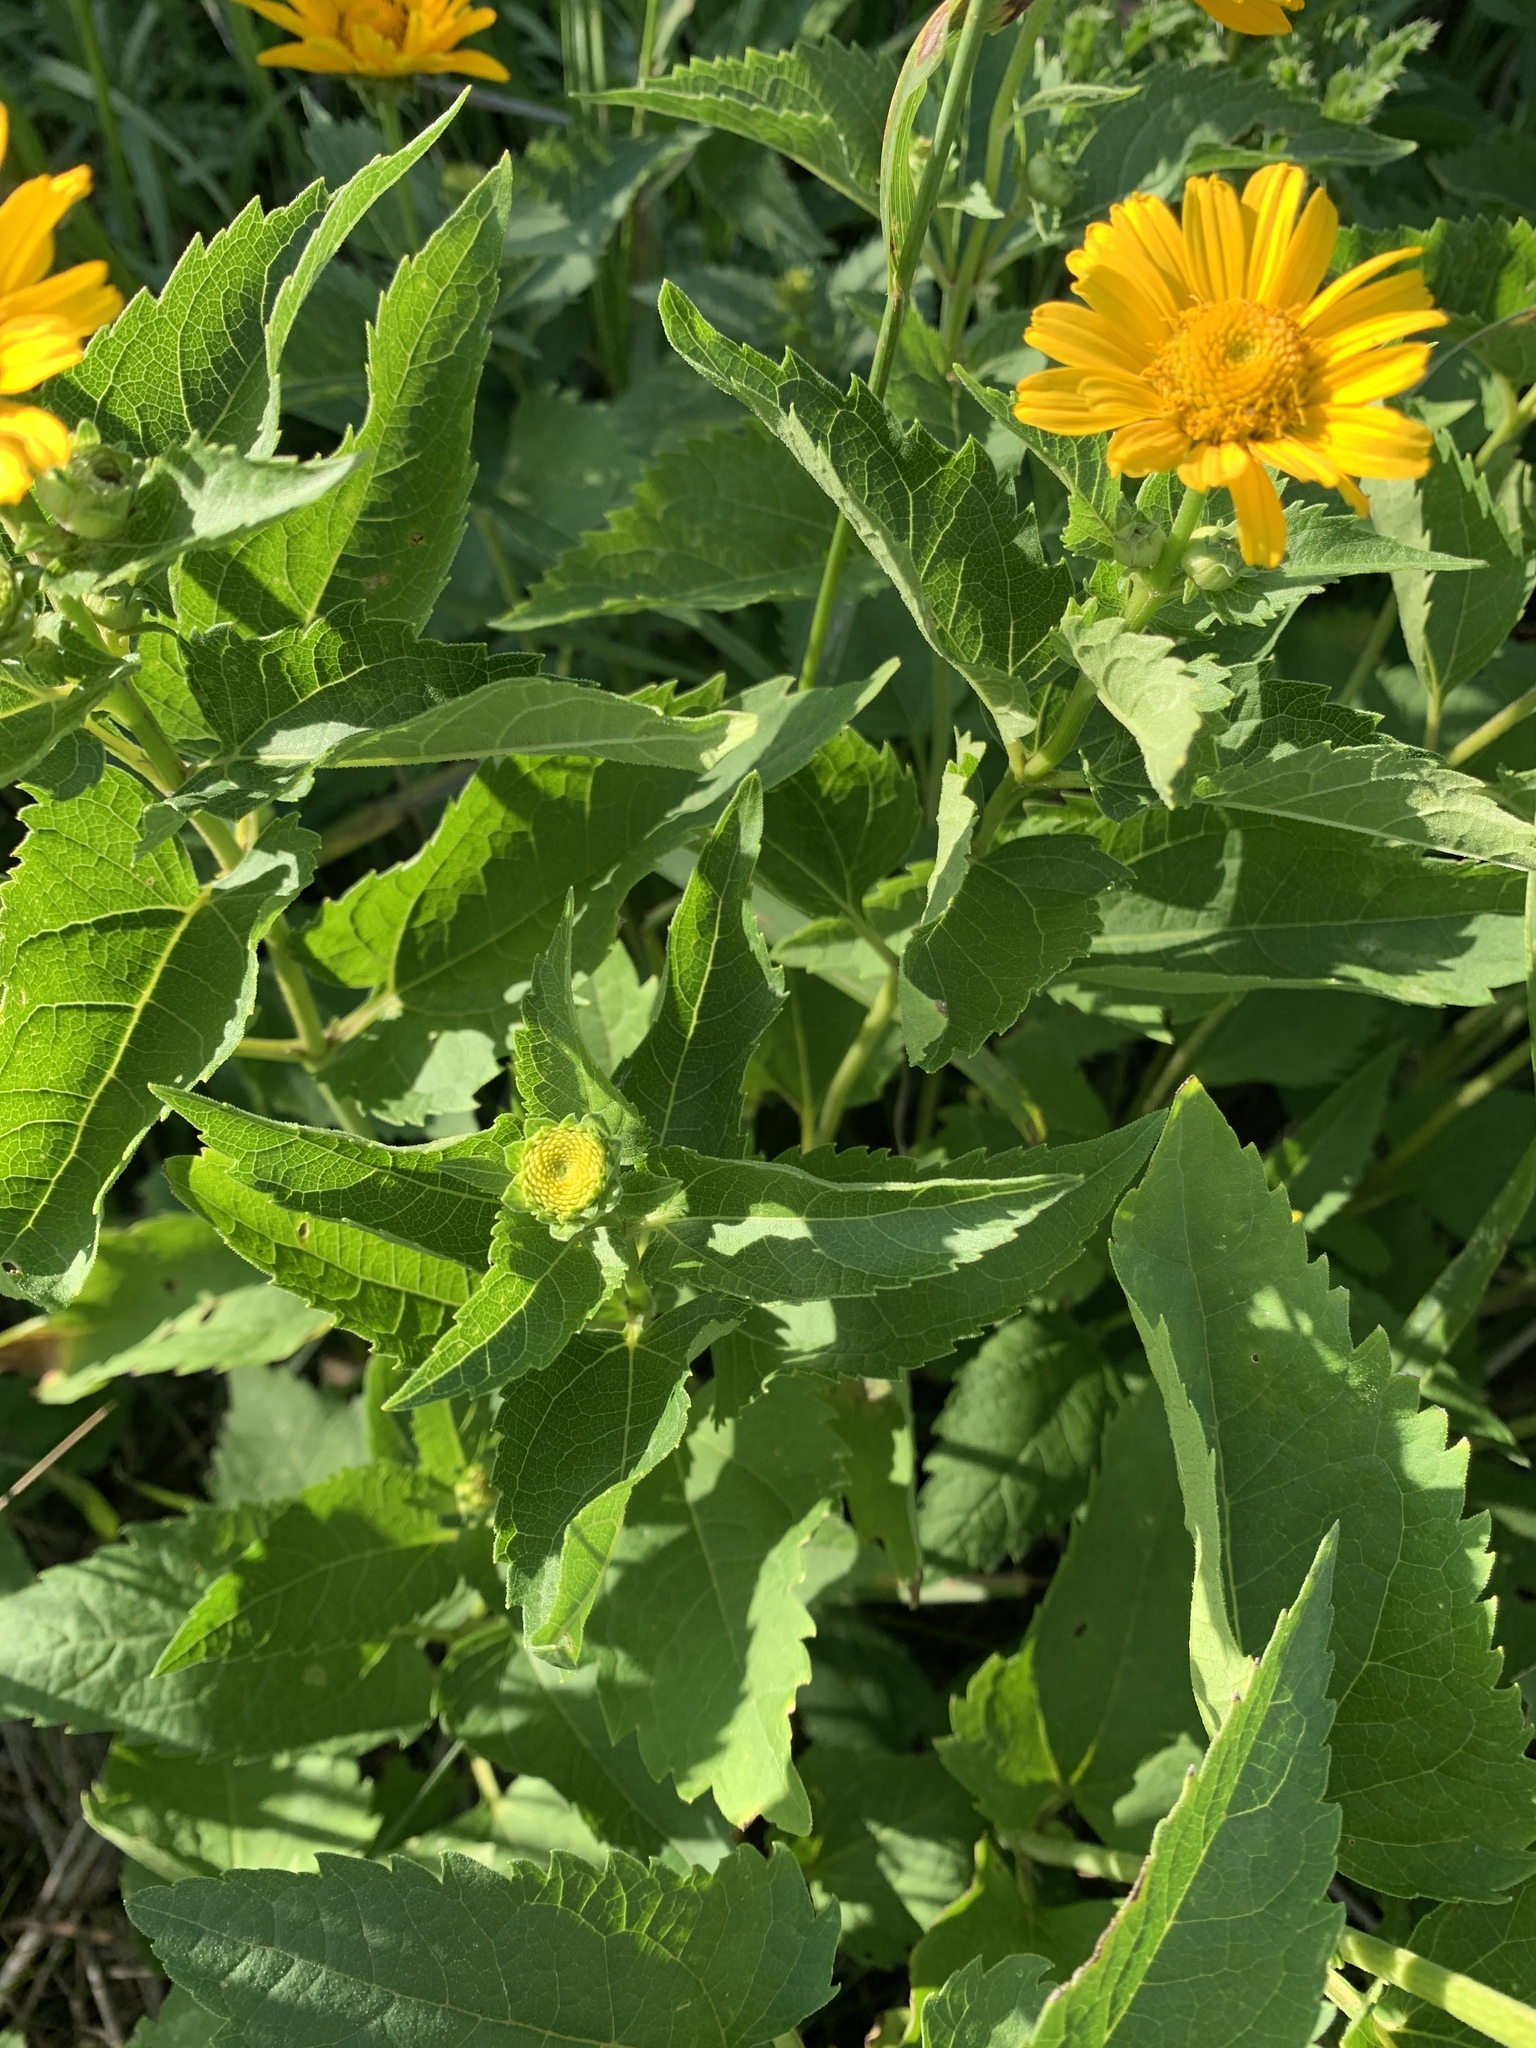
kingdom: Plantae
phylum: Tracheophyta
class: Magnoliopsida
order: Asterales
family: Asteraceae
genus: Heliopsis
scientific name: Heliopsis helianthoides
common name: False sunflower
